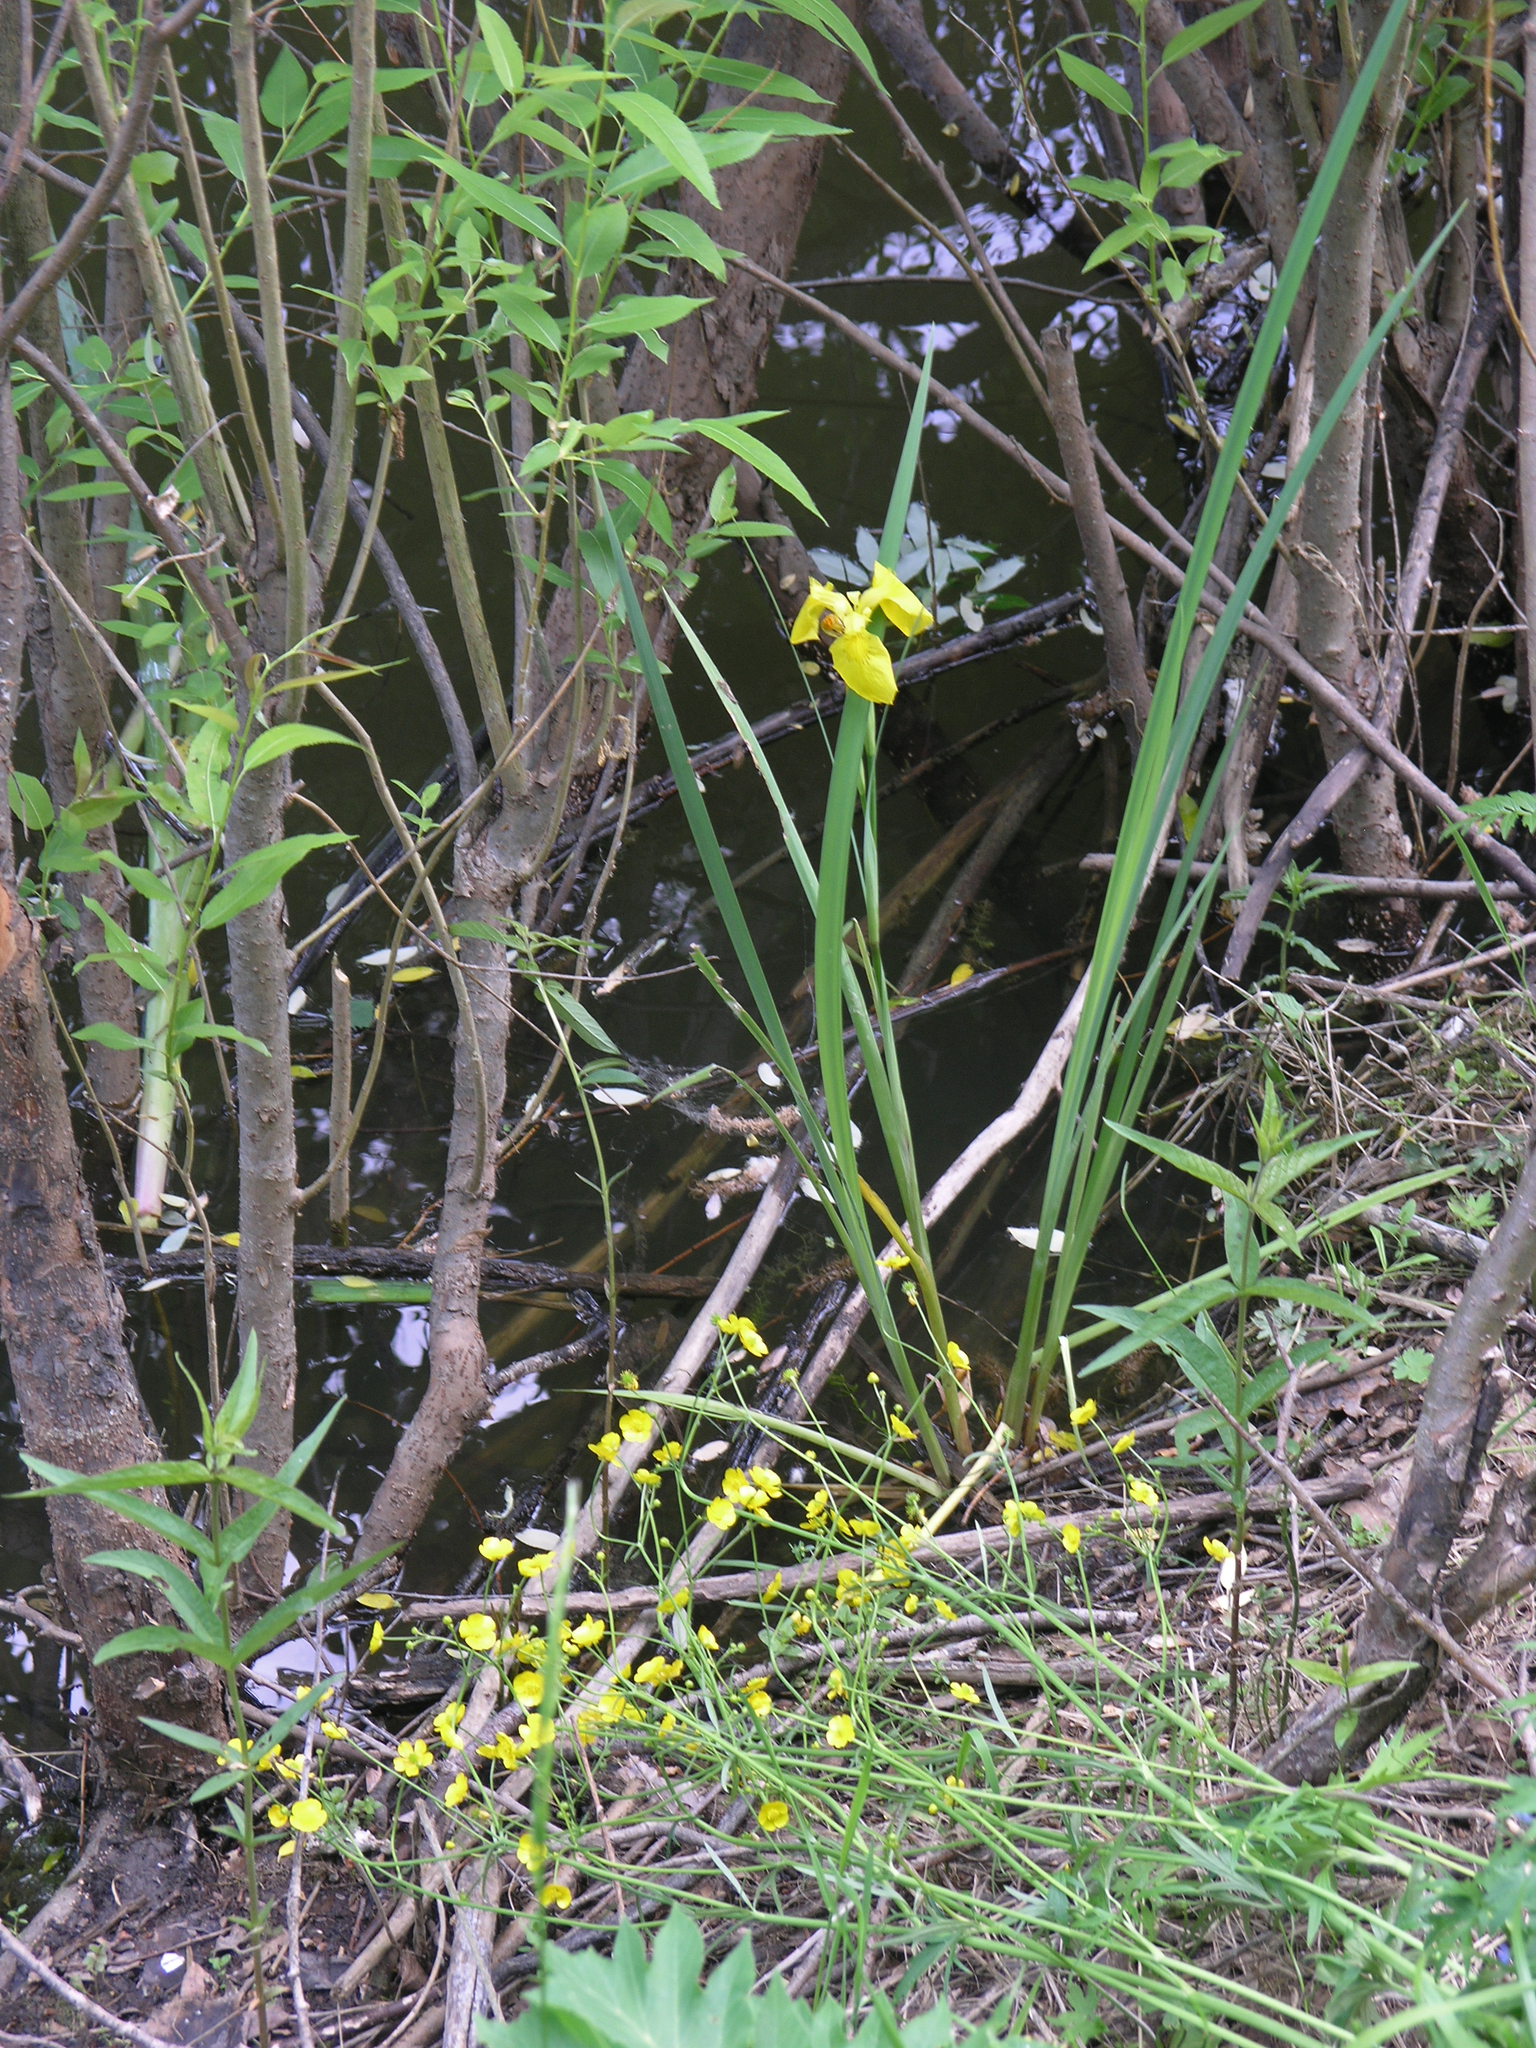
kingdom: Plantae
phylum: Tracheophyta
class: Liliopsida
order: Asparagales
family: Iridaceae
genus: Iris
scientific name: Iris pseudacorus
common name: Yellow flag
